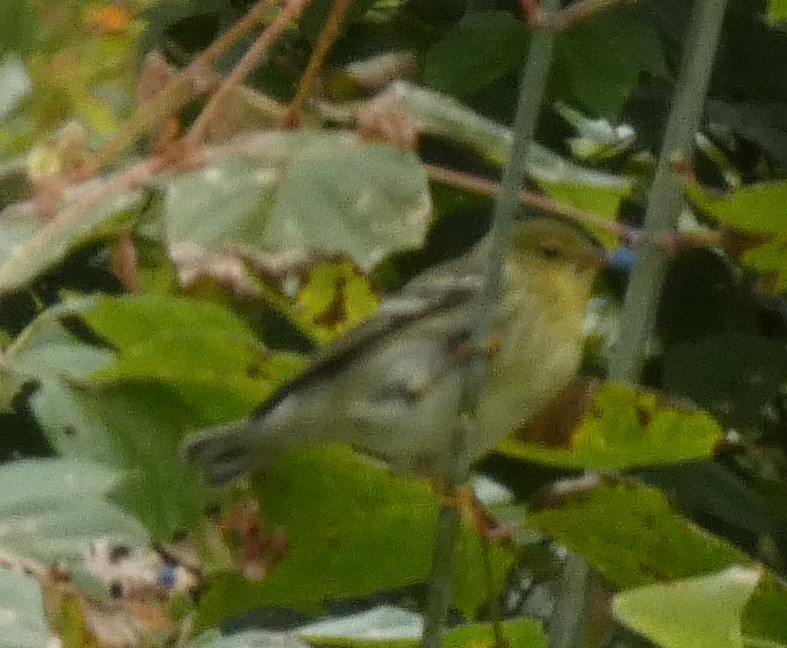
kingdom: Animalia
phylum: Chordata
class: Aves
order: Passeriformes
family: Parulidae
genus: Setophaga
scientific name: Setophaga striata
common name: Blackpoll warbler
